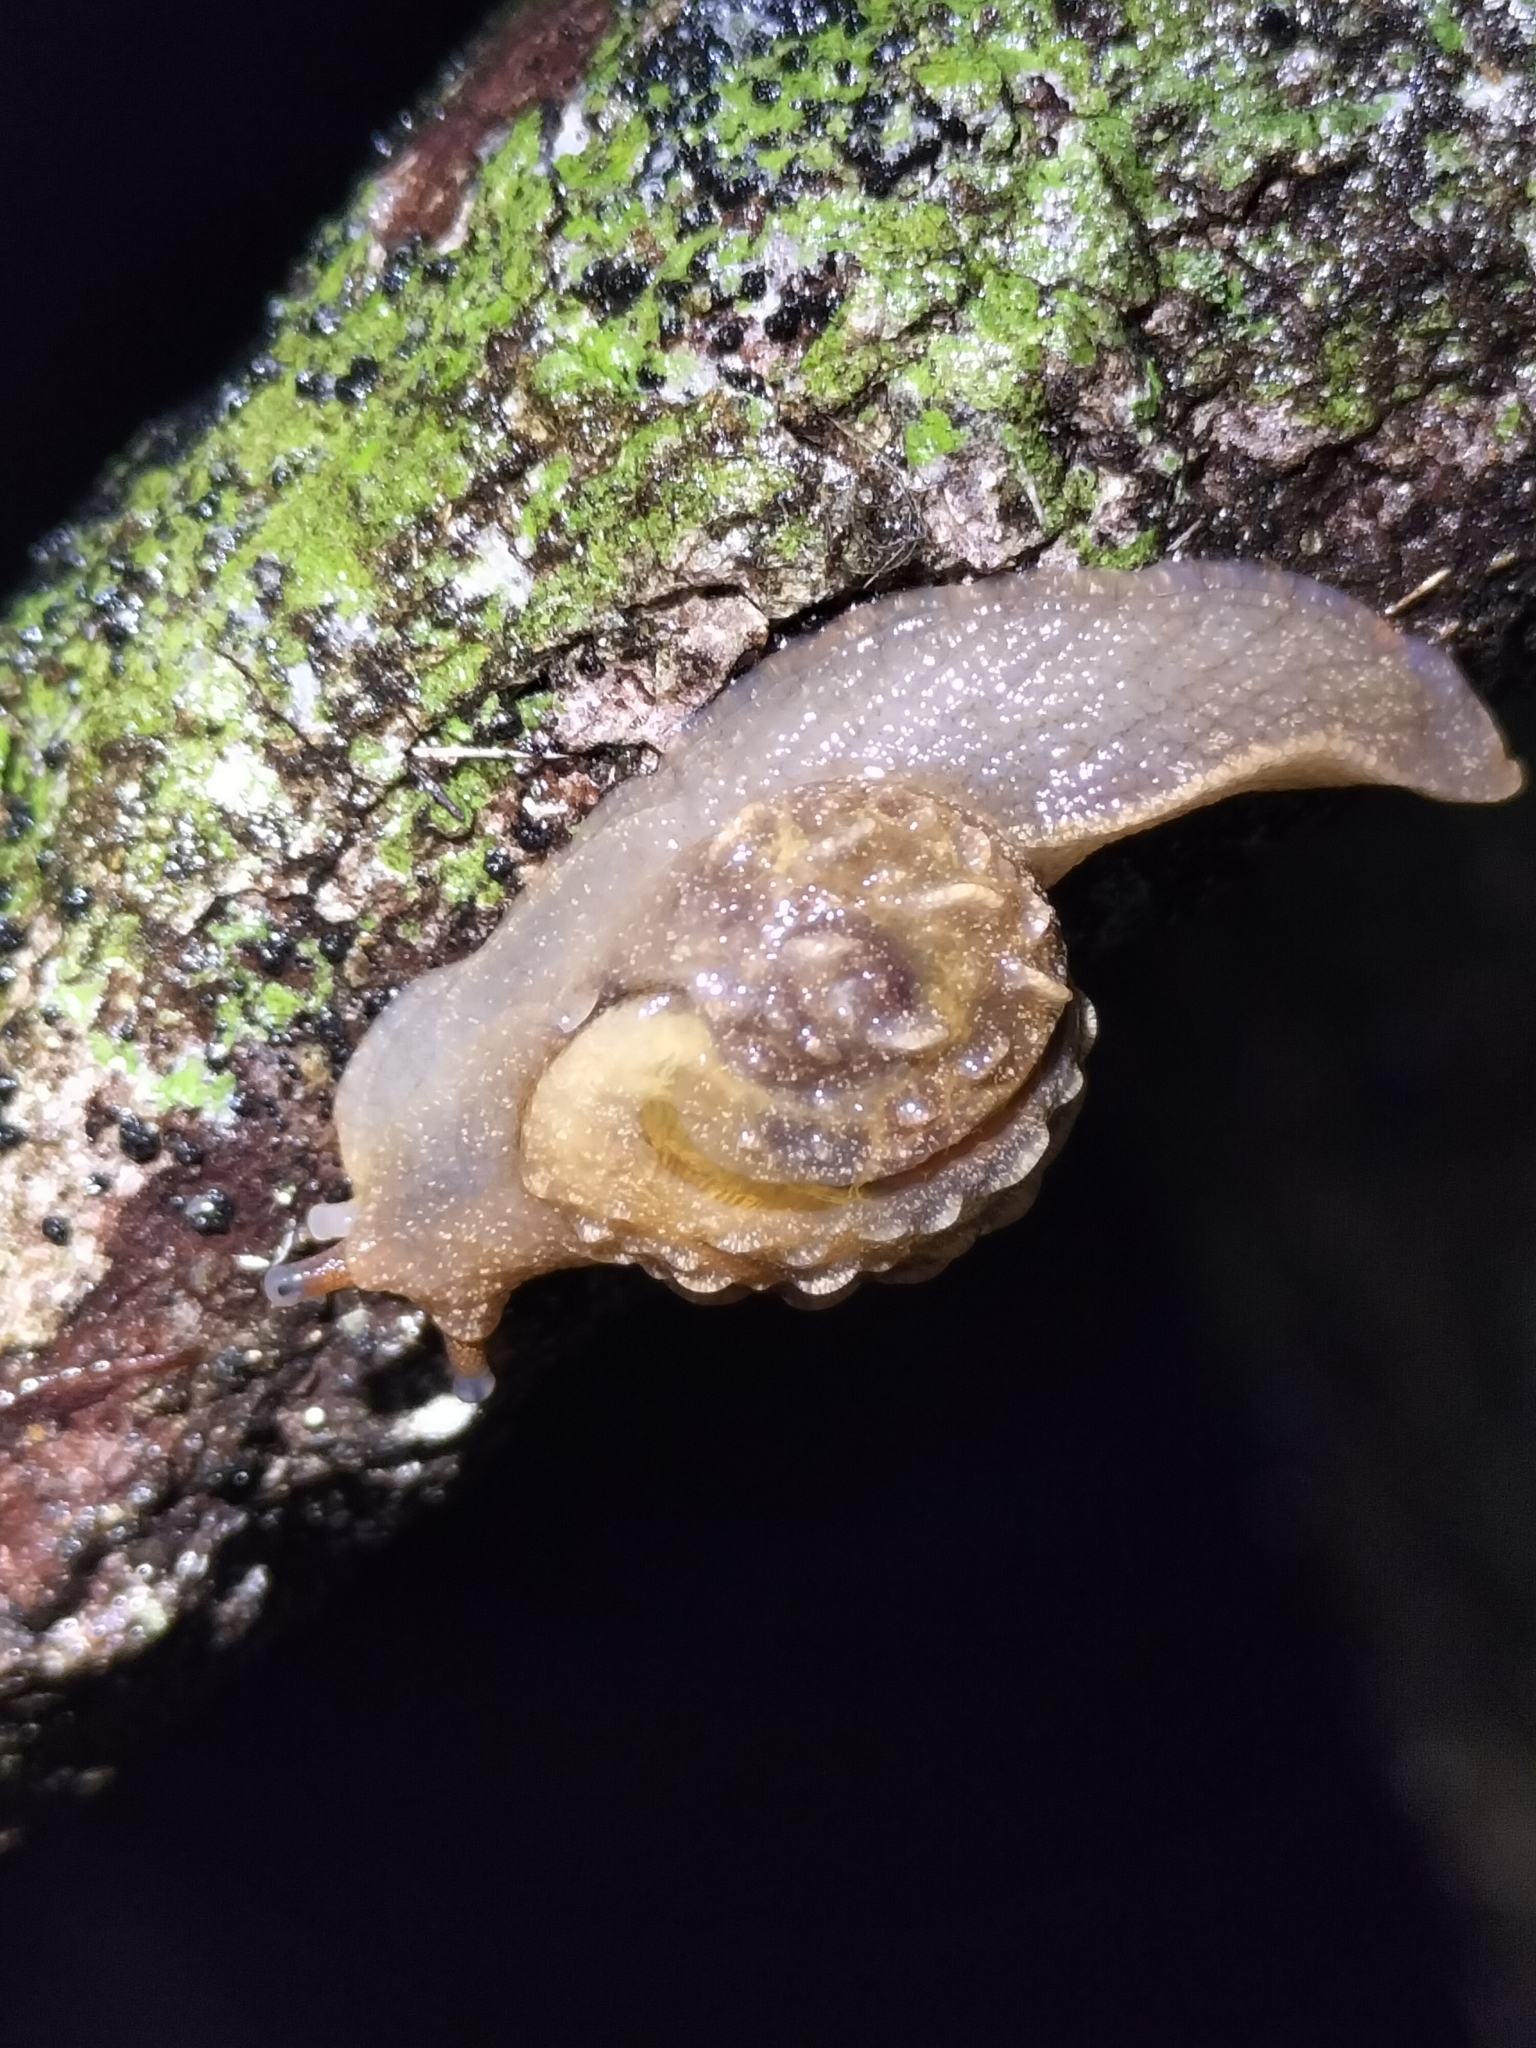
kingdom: Animalia
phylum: Mollusca
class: Gastropoda
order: Stylommatophora
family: Helicarionidae
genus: Fastosarion
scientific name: Fastosarion brazieri
